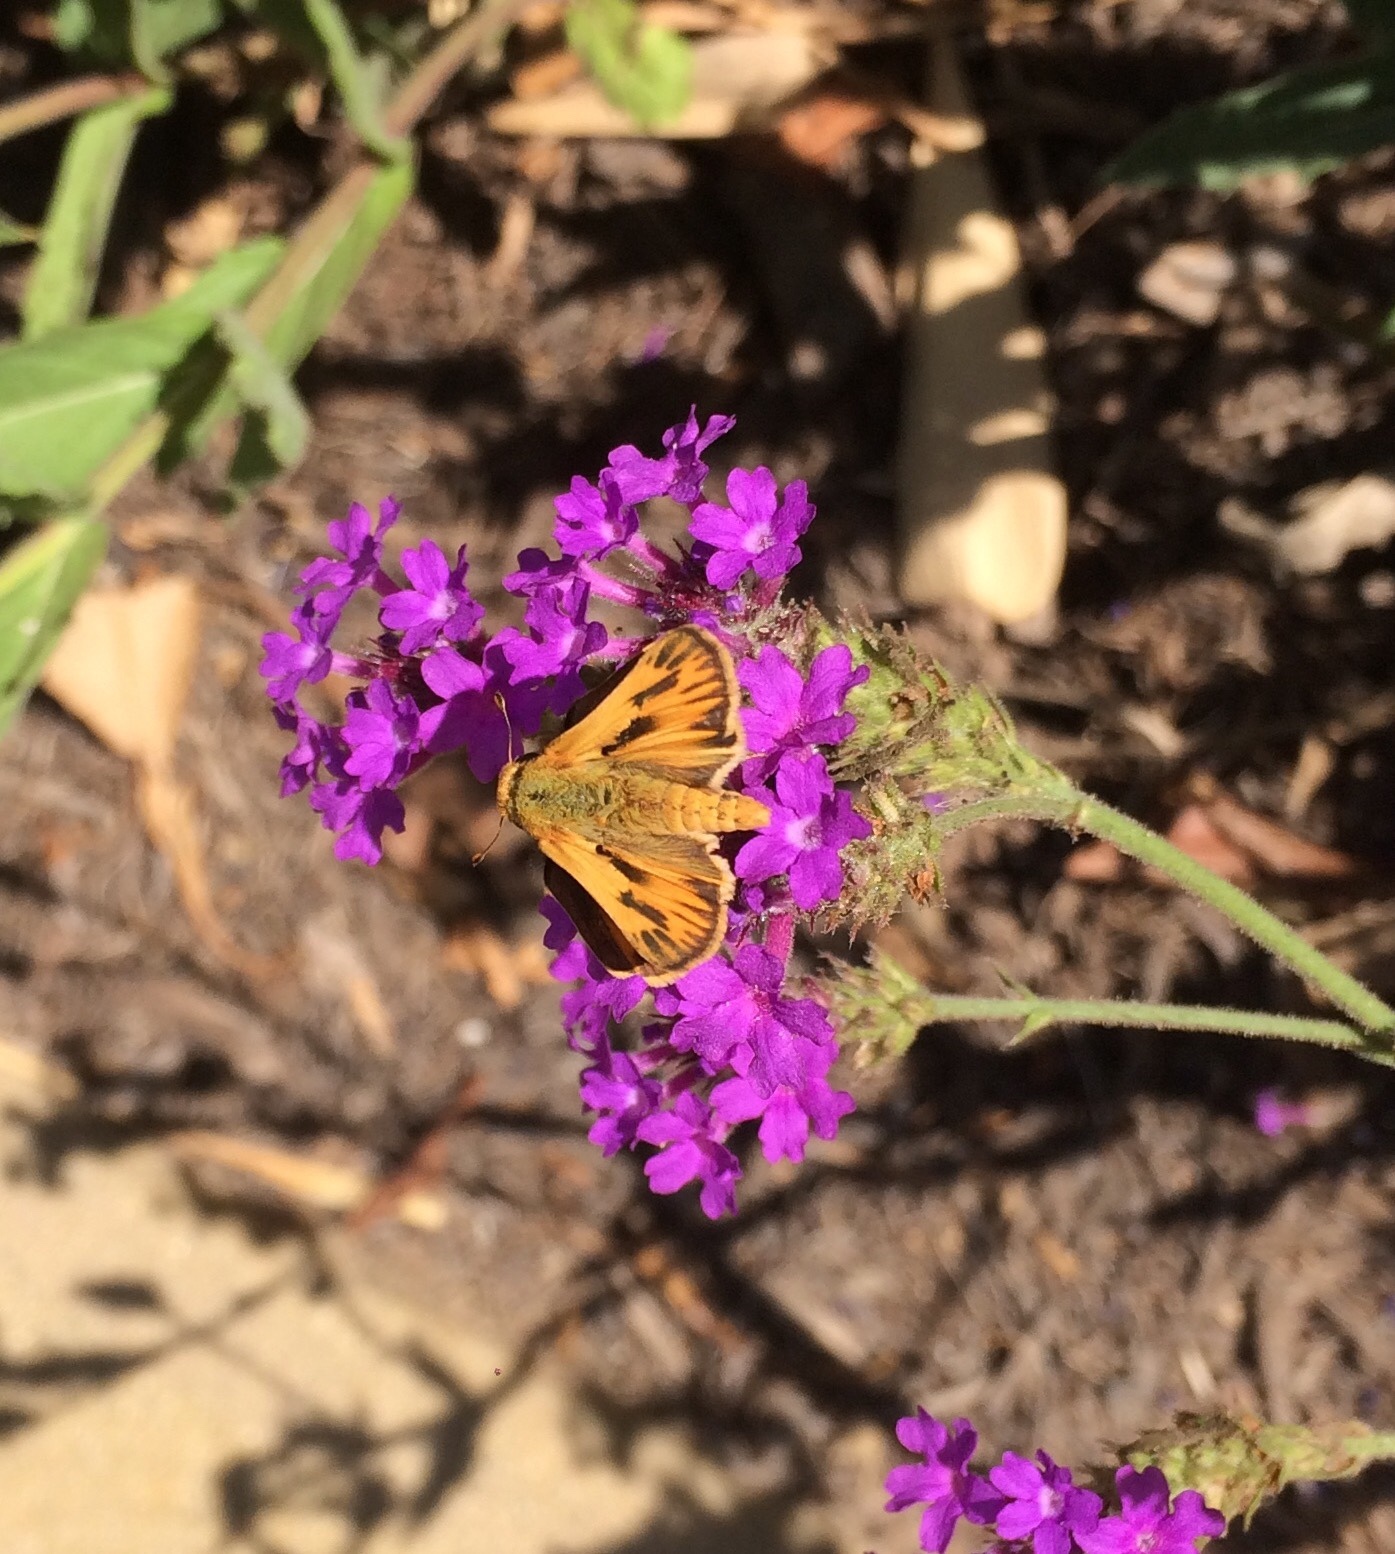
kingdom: Animalia
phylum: Arthropoda
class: Insecta
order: Lepidoptera
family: Hesperiidae
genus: Hylephila
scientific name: Hylephila phyleus
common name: Fiery skipper
